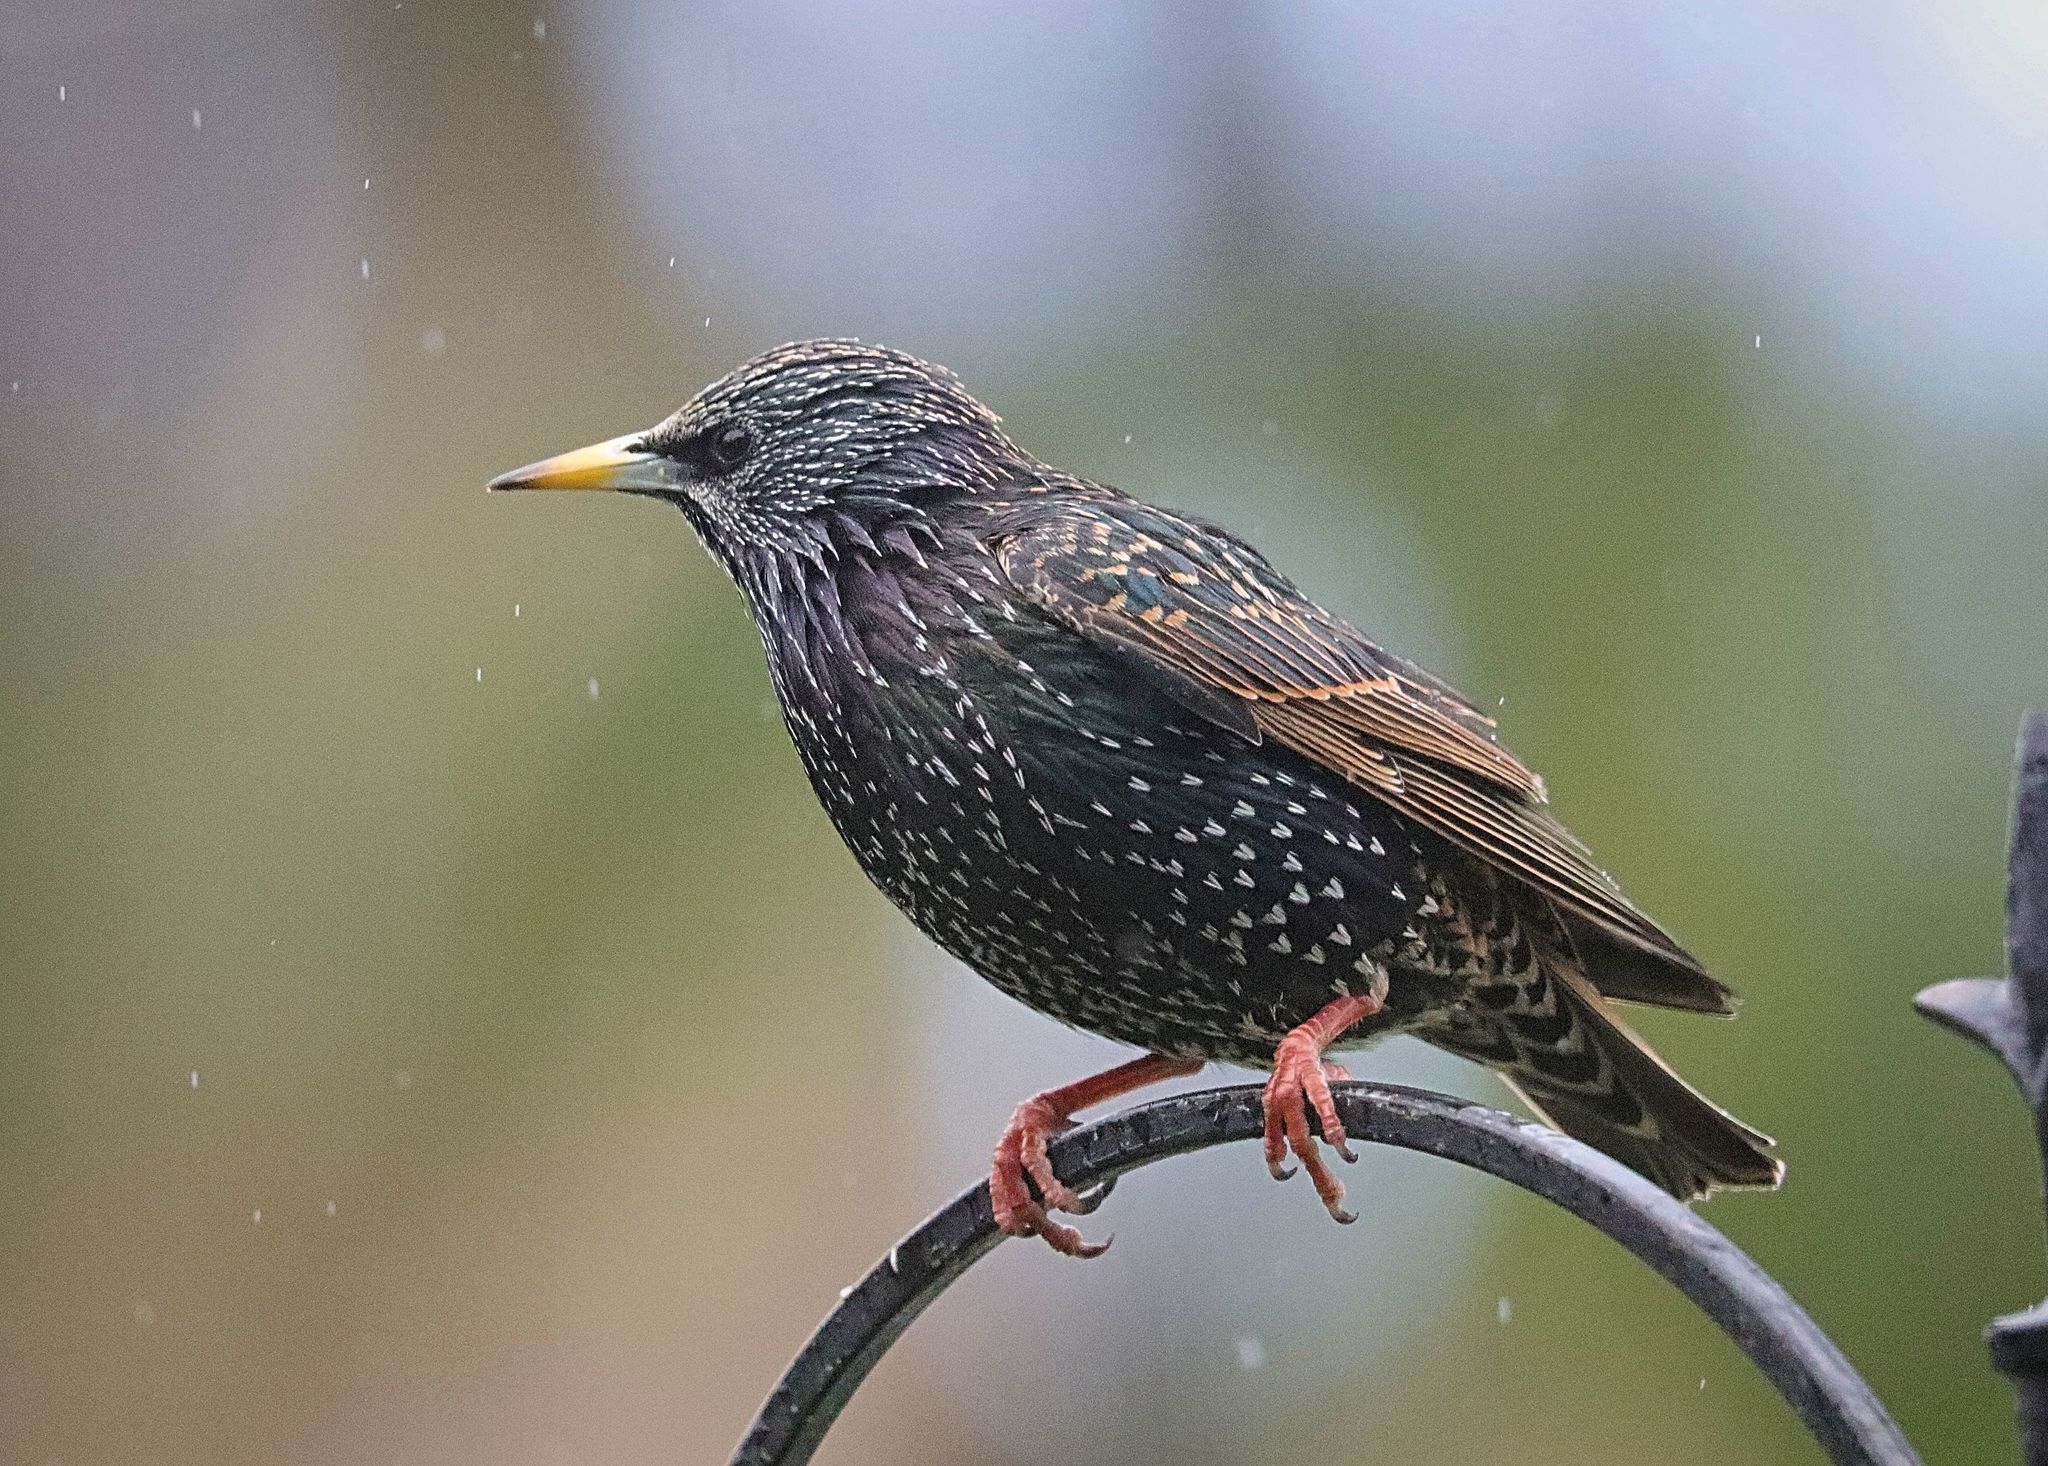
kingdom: Animalia
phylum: Chordata
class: Aves
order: Passeriformes
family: Sturnidae
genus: Sturnus
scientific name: Sturnus vulgaris
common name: Common starling
